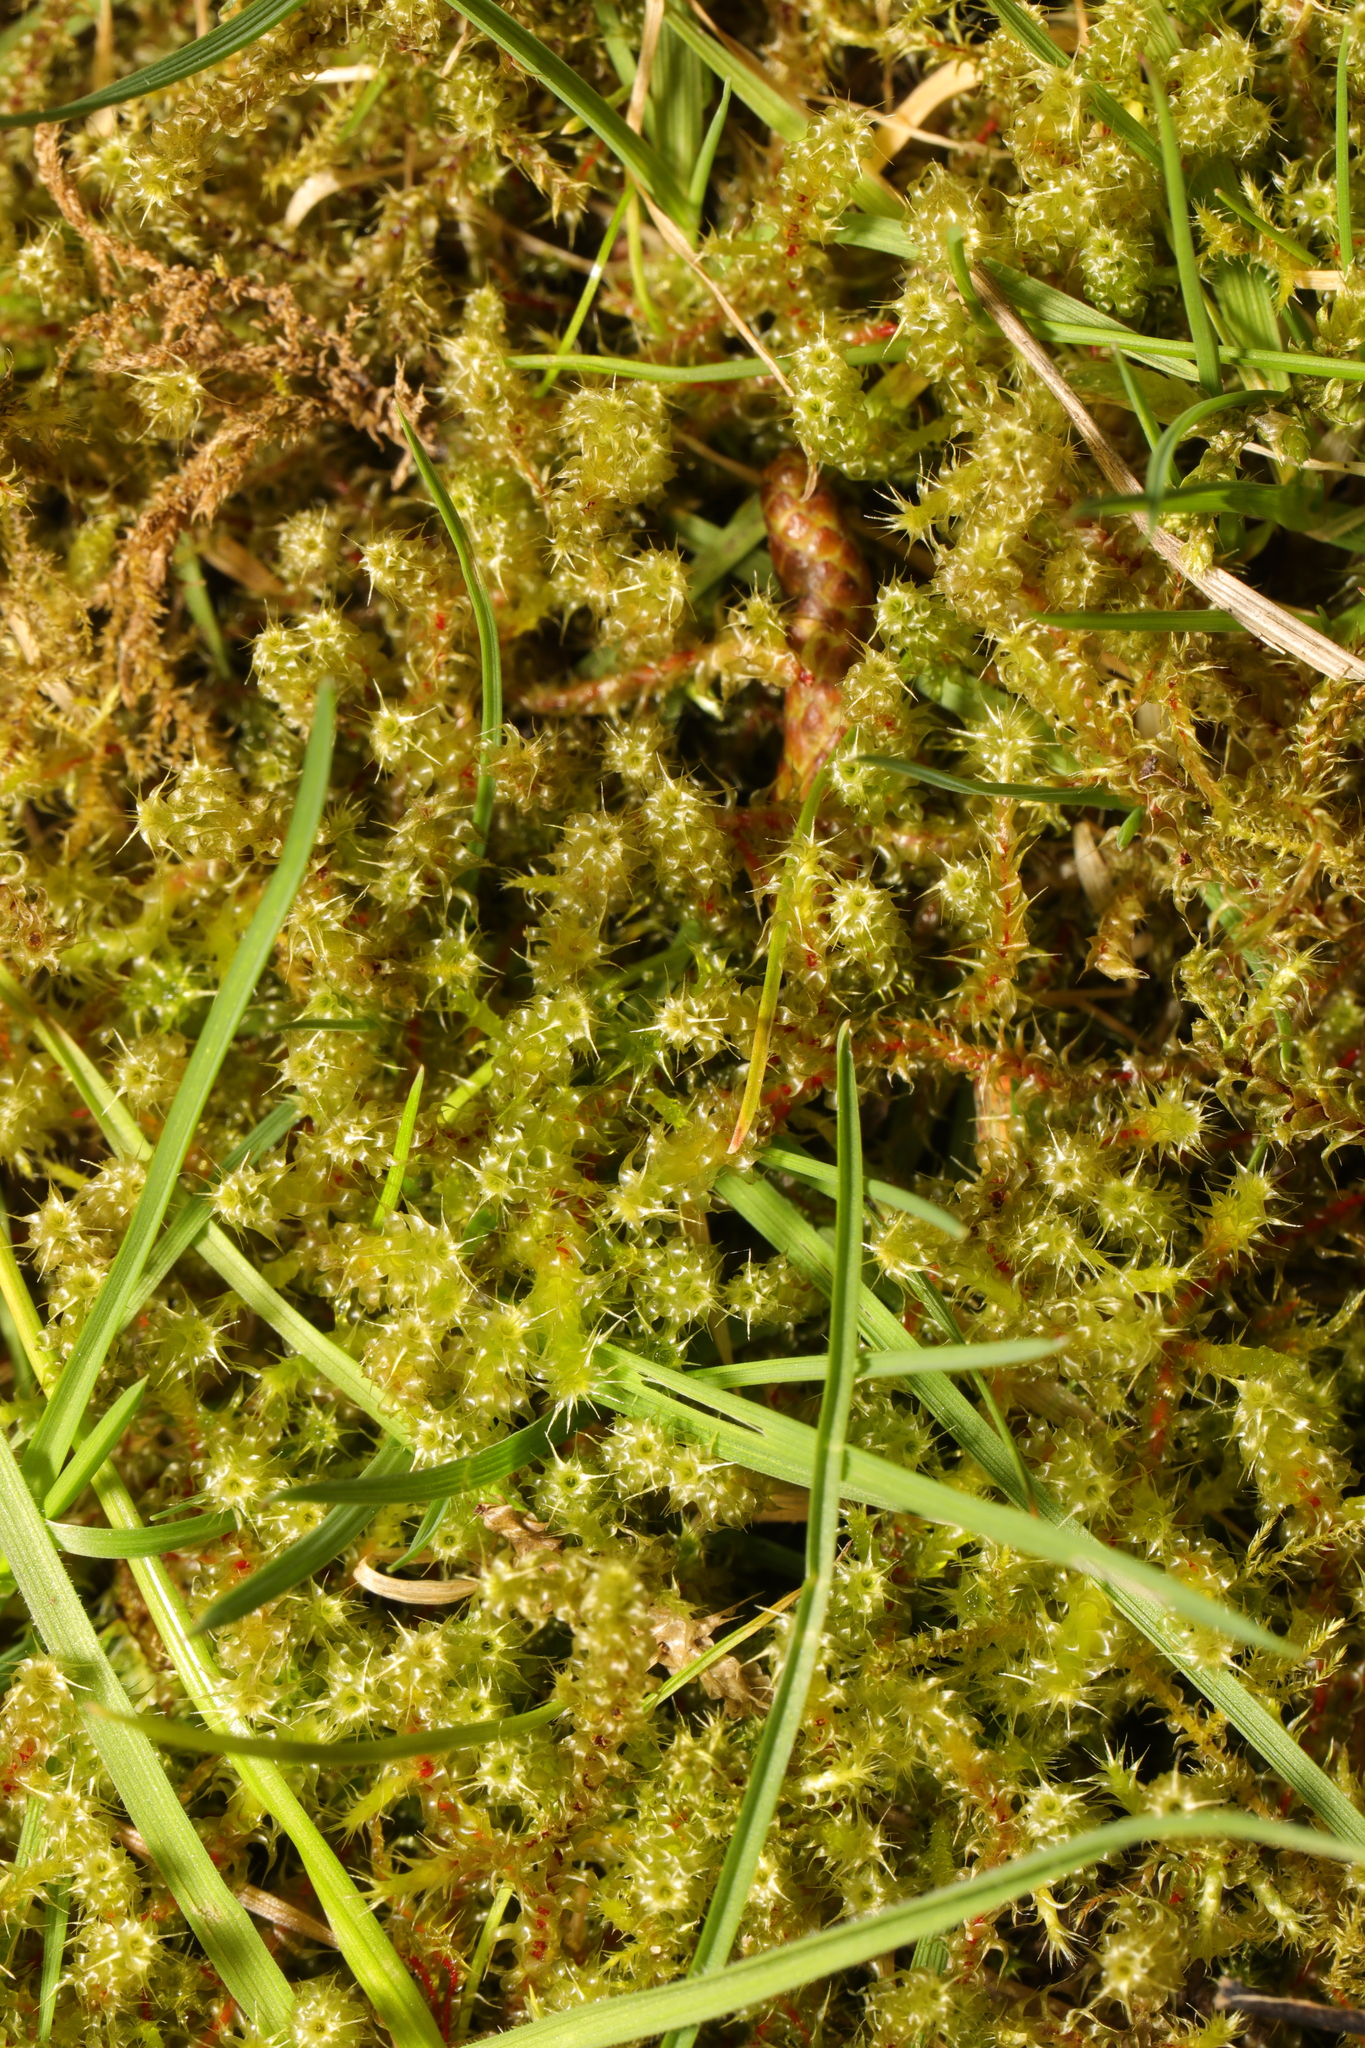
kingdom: Plantae
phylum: Bryophyta
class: Bryopsida
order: Hypnales
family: Hylocomiaceae
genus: Rhytidiadelphus
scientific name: Rhytidiadelphus squarrosus
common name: Springy turf-moss
